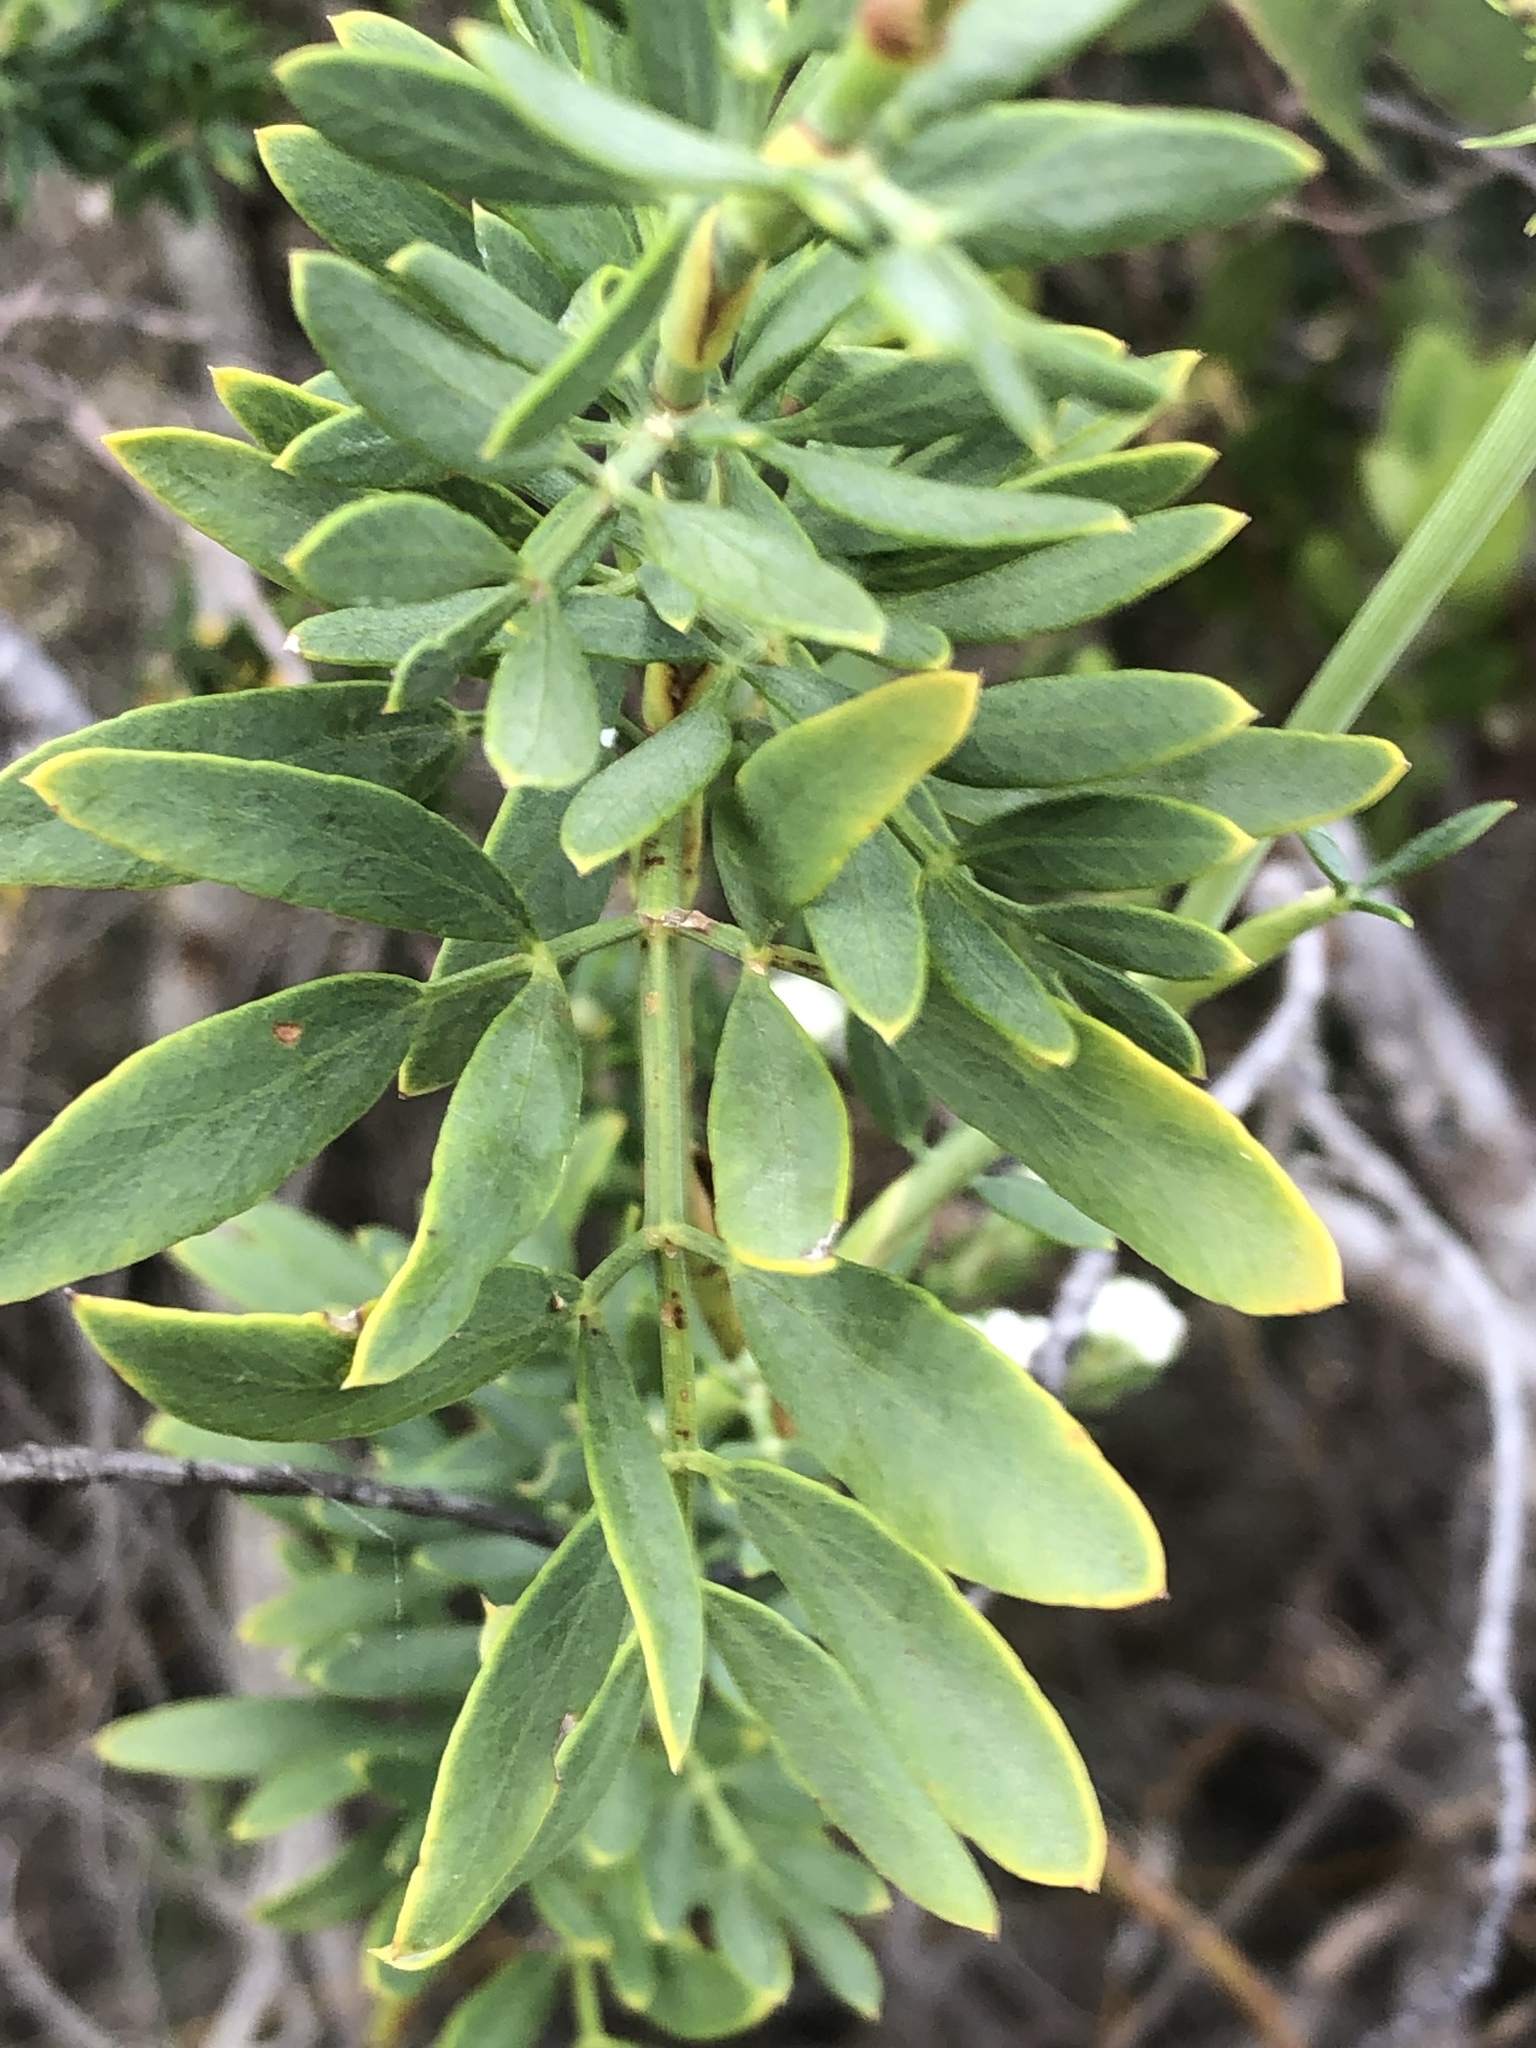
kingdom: Plantae
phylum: Tracheophyta
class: Magnoliopsida
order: Apiales
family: Apiaceae
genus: Notobubon
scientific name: Notobubon laevigatum
